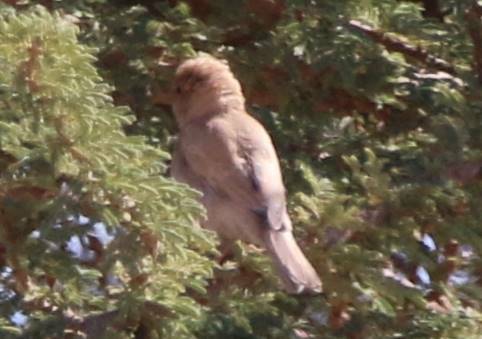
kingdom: Animalia
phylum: Chordata
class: Aves
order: Passeriformes
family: Passeridae
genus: Passer
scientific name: Passer simplex
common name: Desert sparrow
